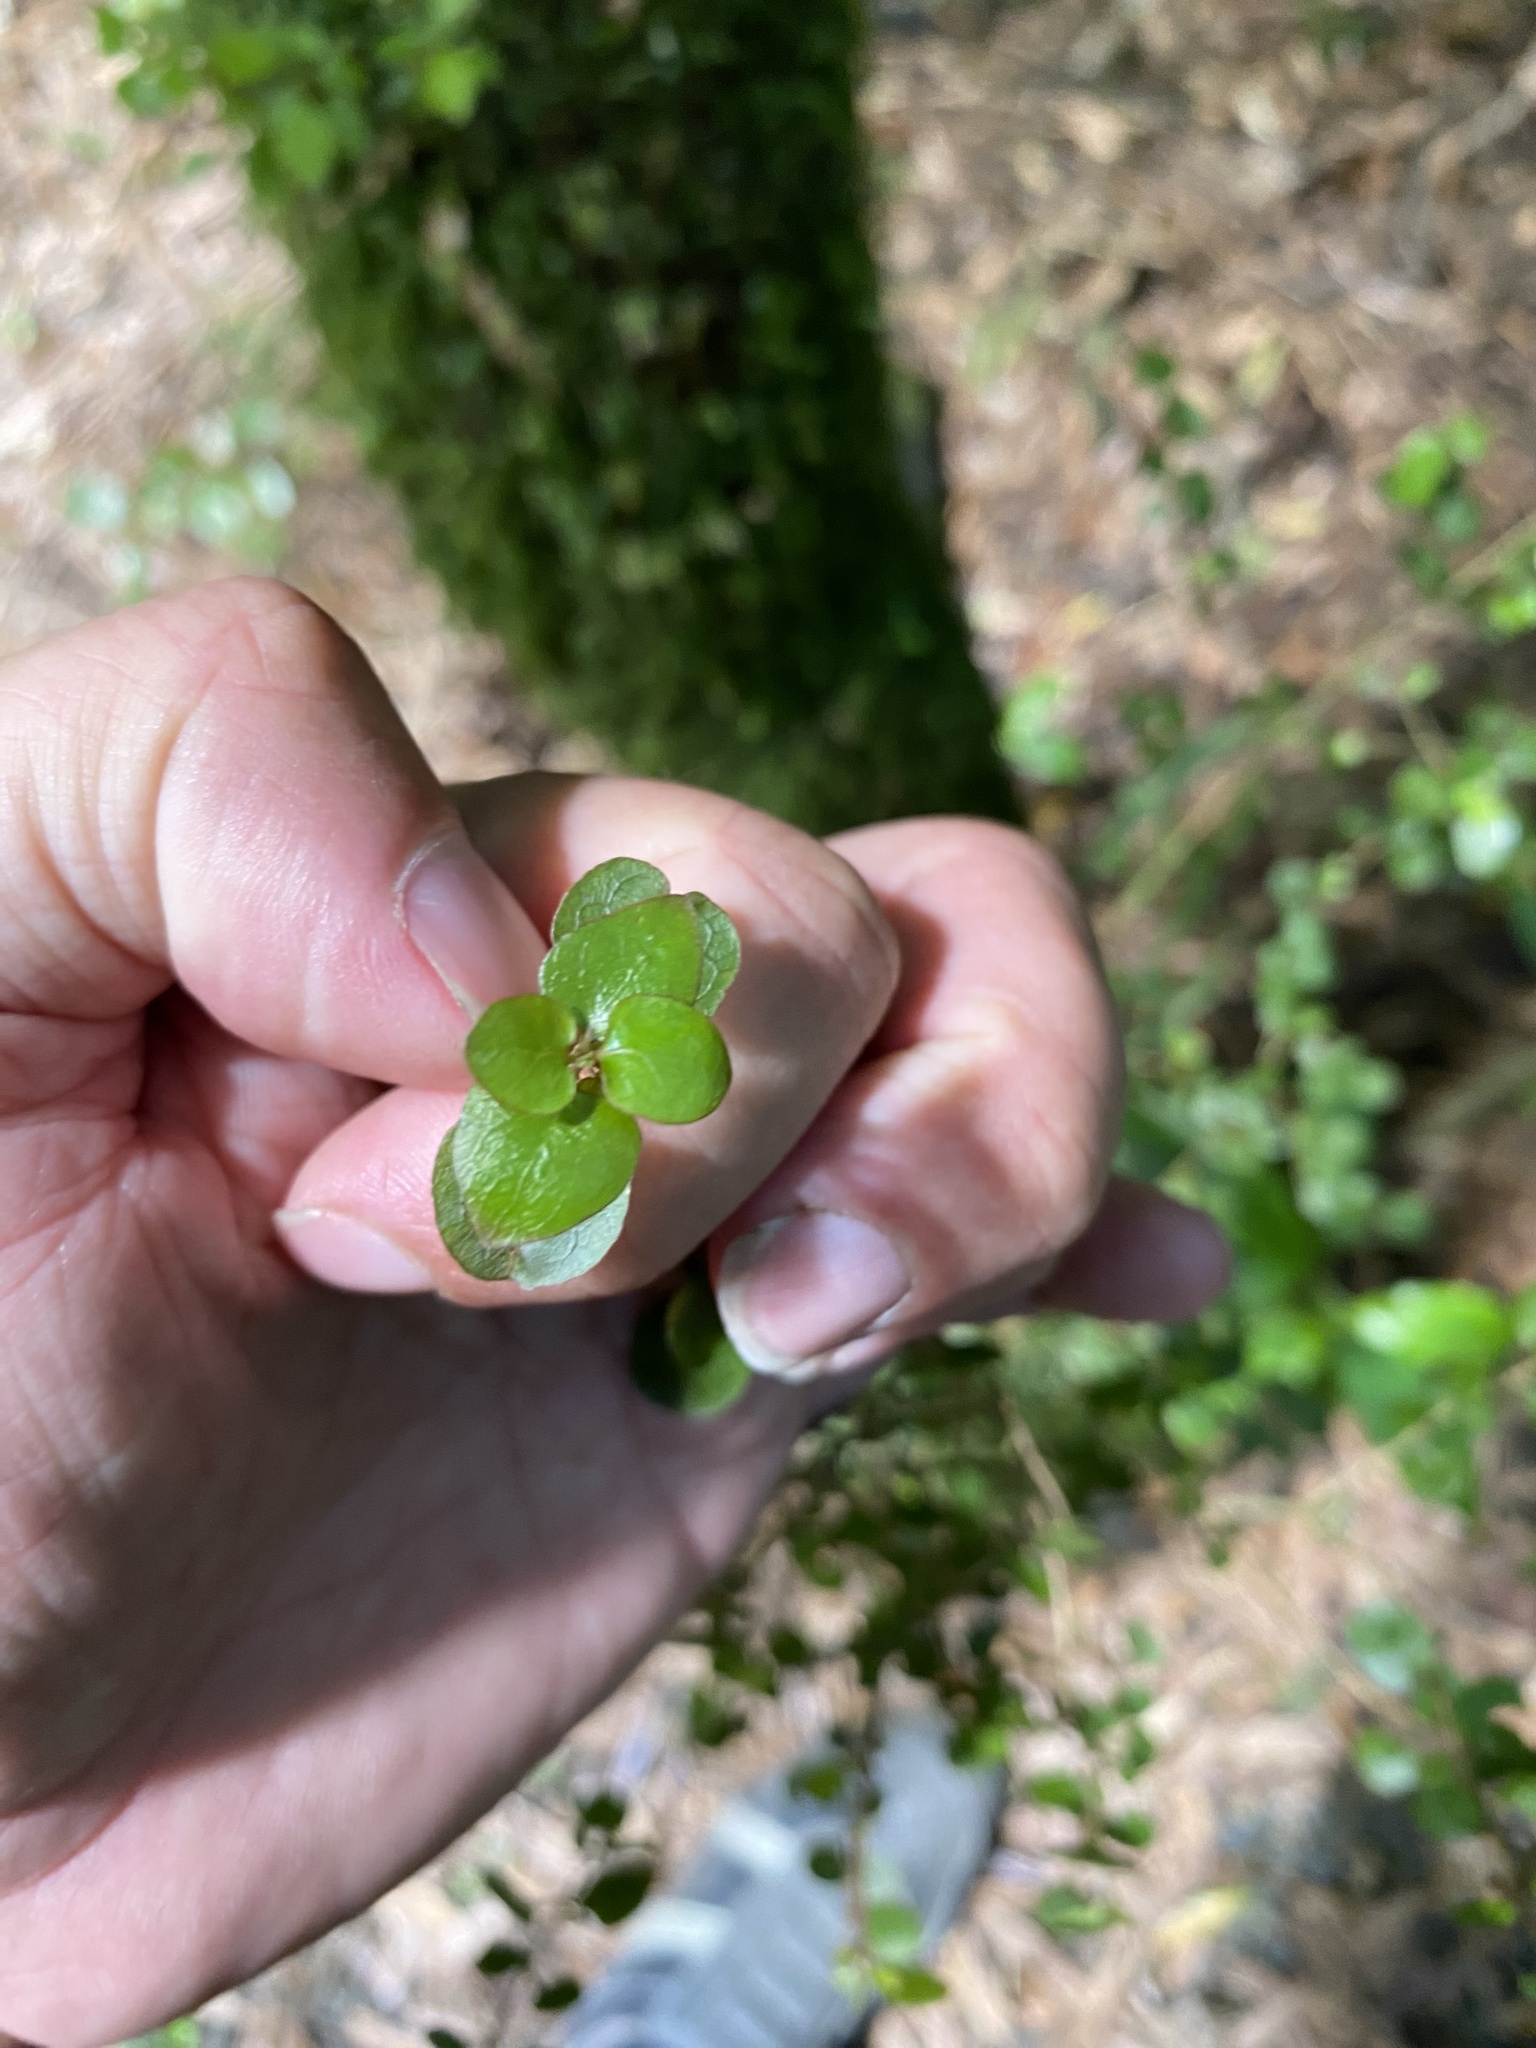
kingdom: Plantae
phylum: Tracheophyta
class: Magnoliopsida
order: Gentianales
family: Rubiaceae
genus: Coprosma
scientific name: Coprosma propinqua
